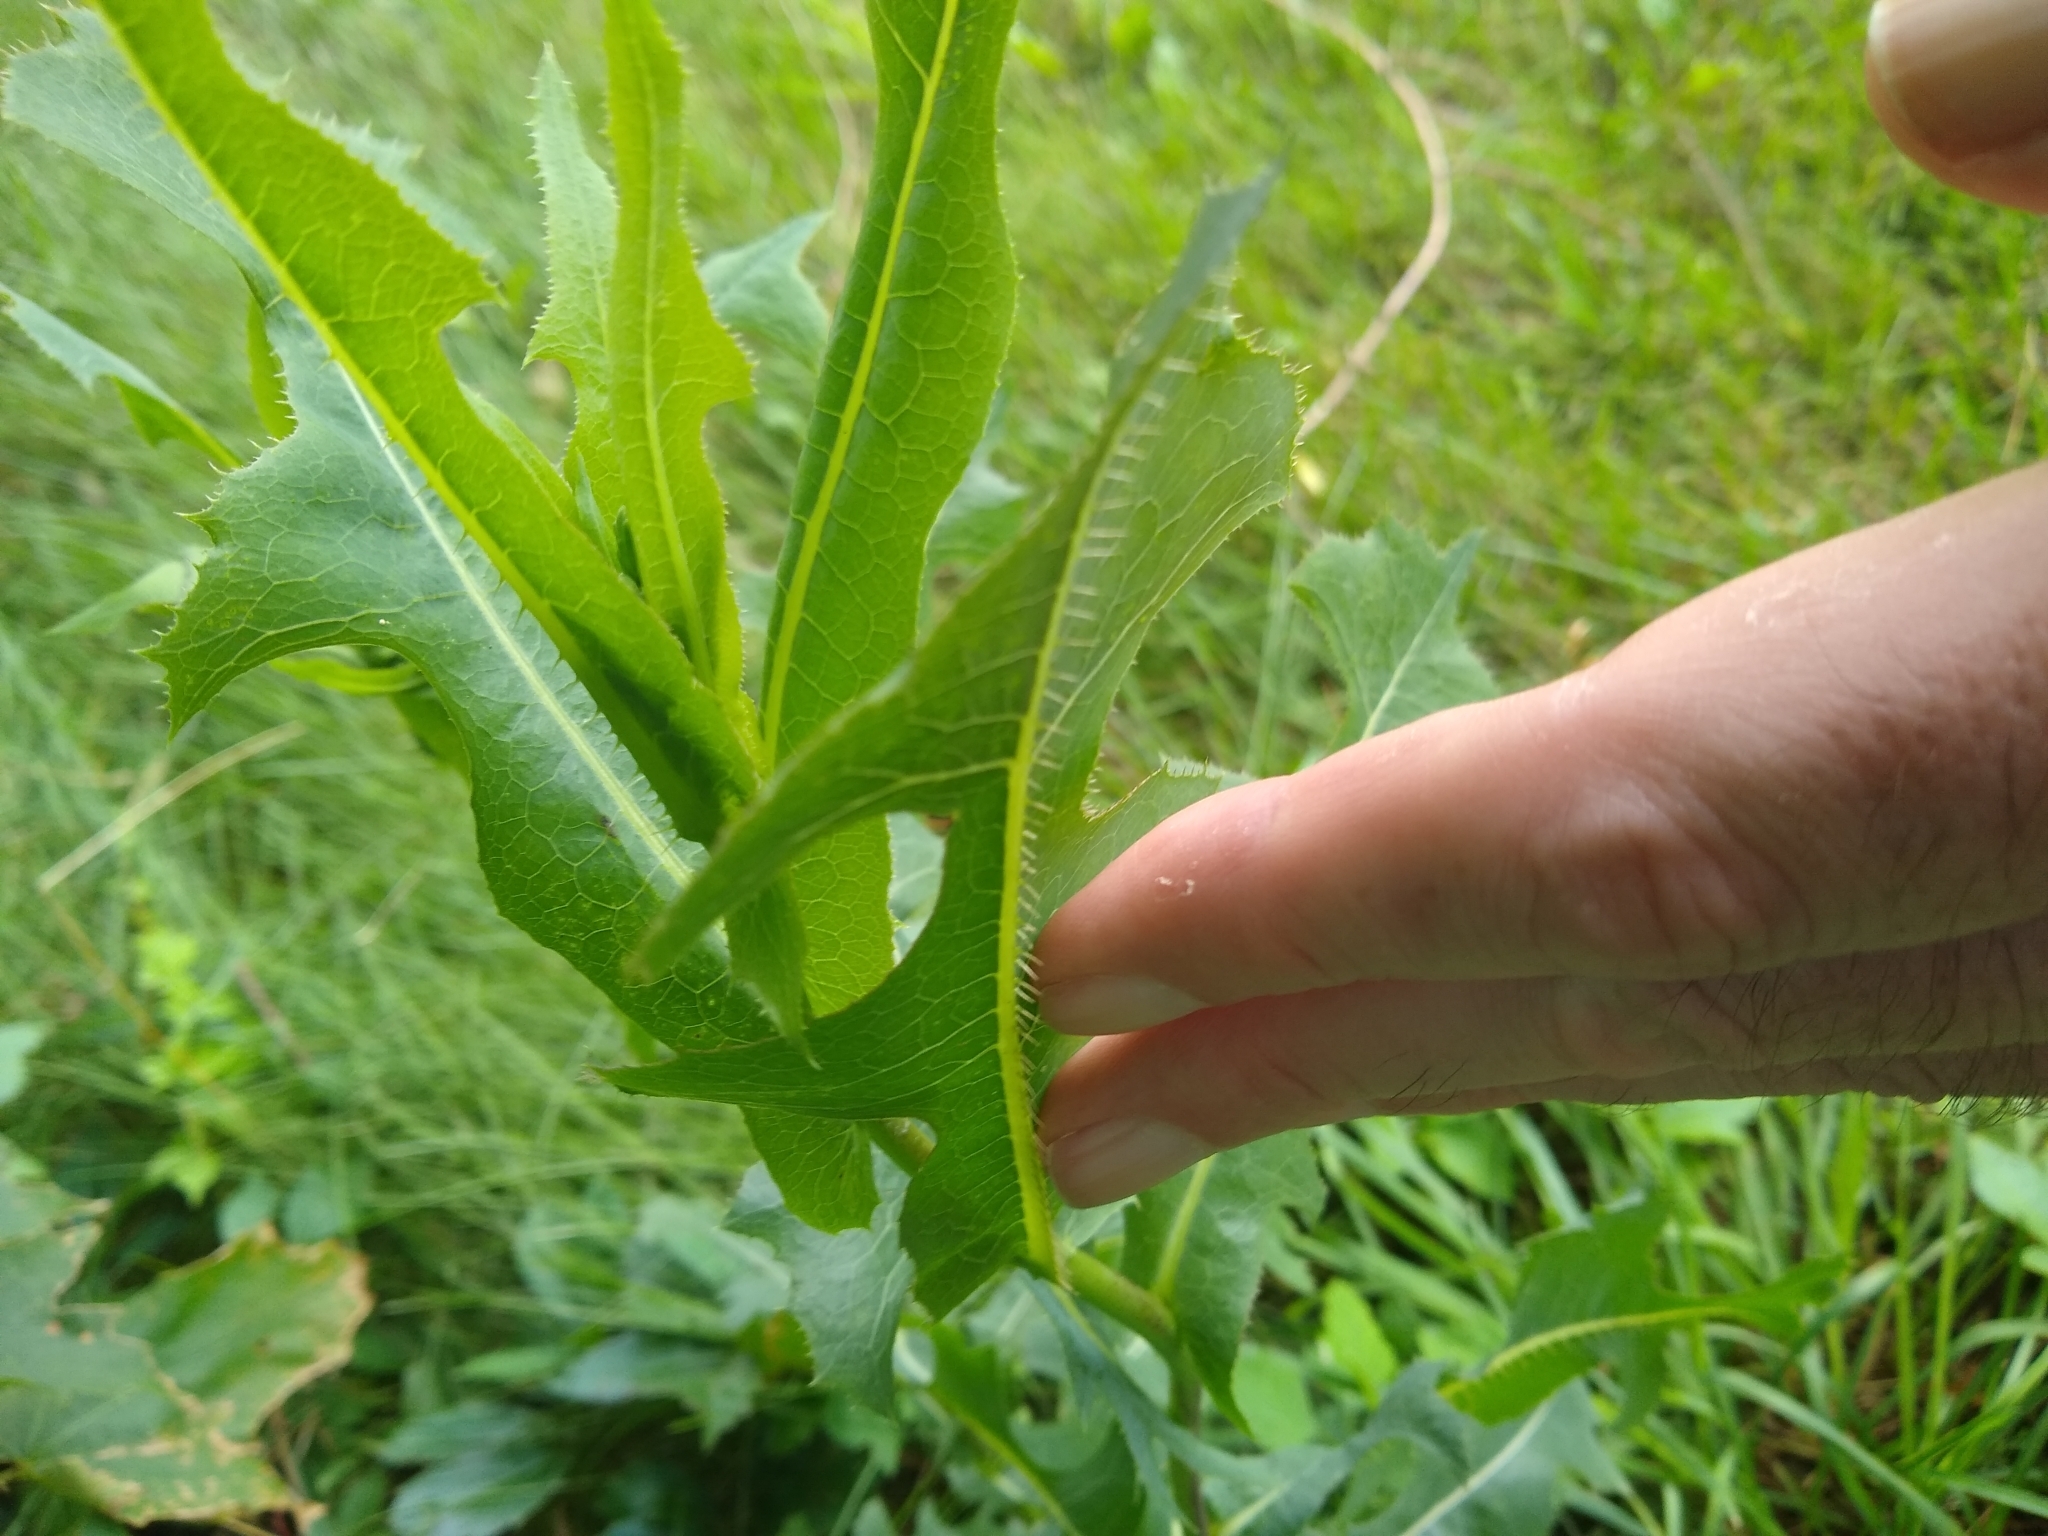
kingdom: Plantae
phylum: Tracheophyta
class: Magnoliopsida
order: Asterales
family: Asteraceae
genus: Lactuca
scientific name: Lactuca serriola
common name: Prickly lettuce
